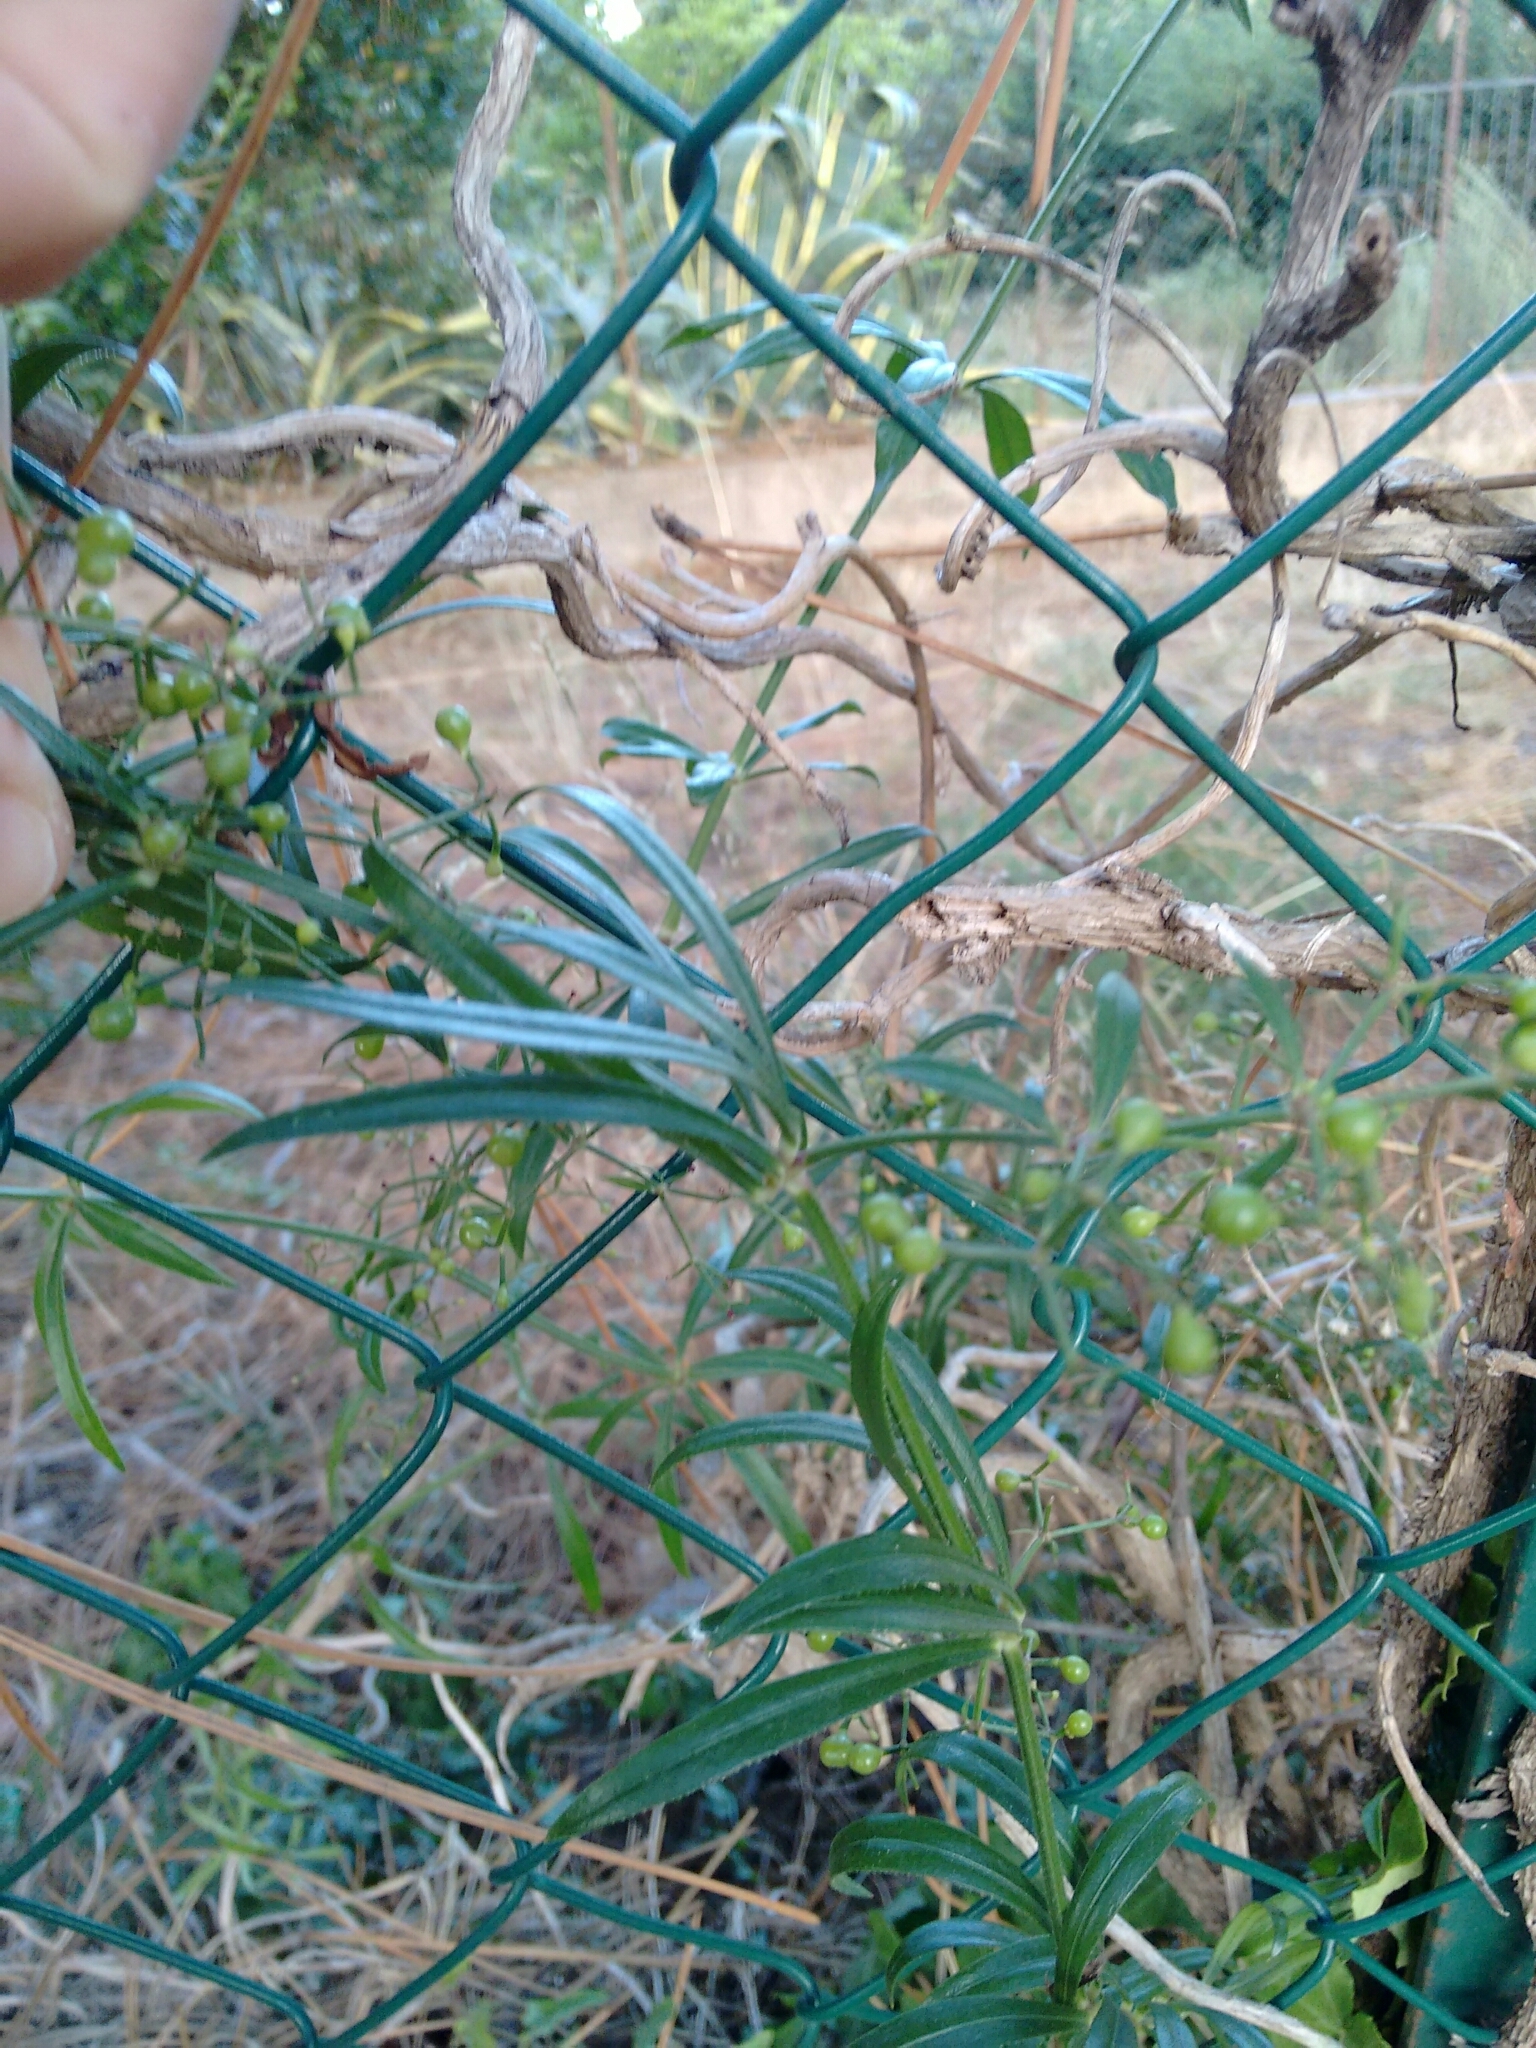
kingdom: Plantae
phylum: Tracheophyta
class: Magnoliopsida
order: Gentianales
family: Rubiaceae
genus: Rubia
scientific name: Rubia peregrina
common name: Wild madder
